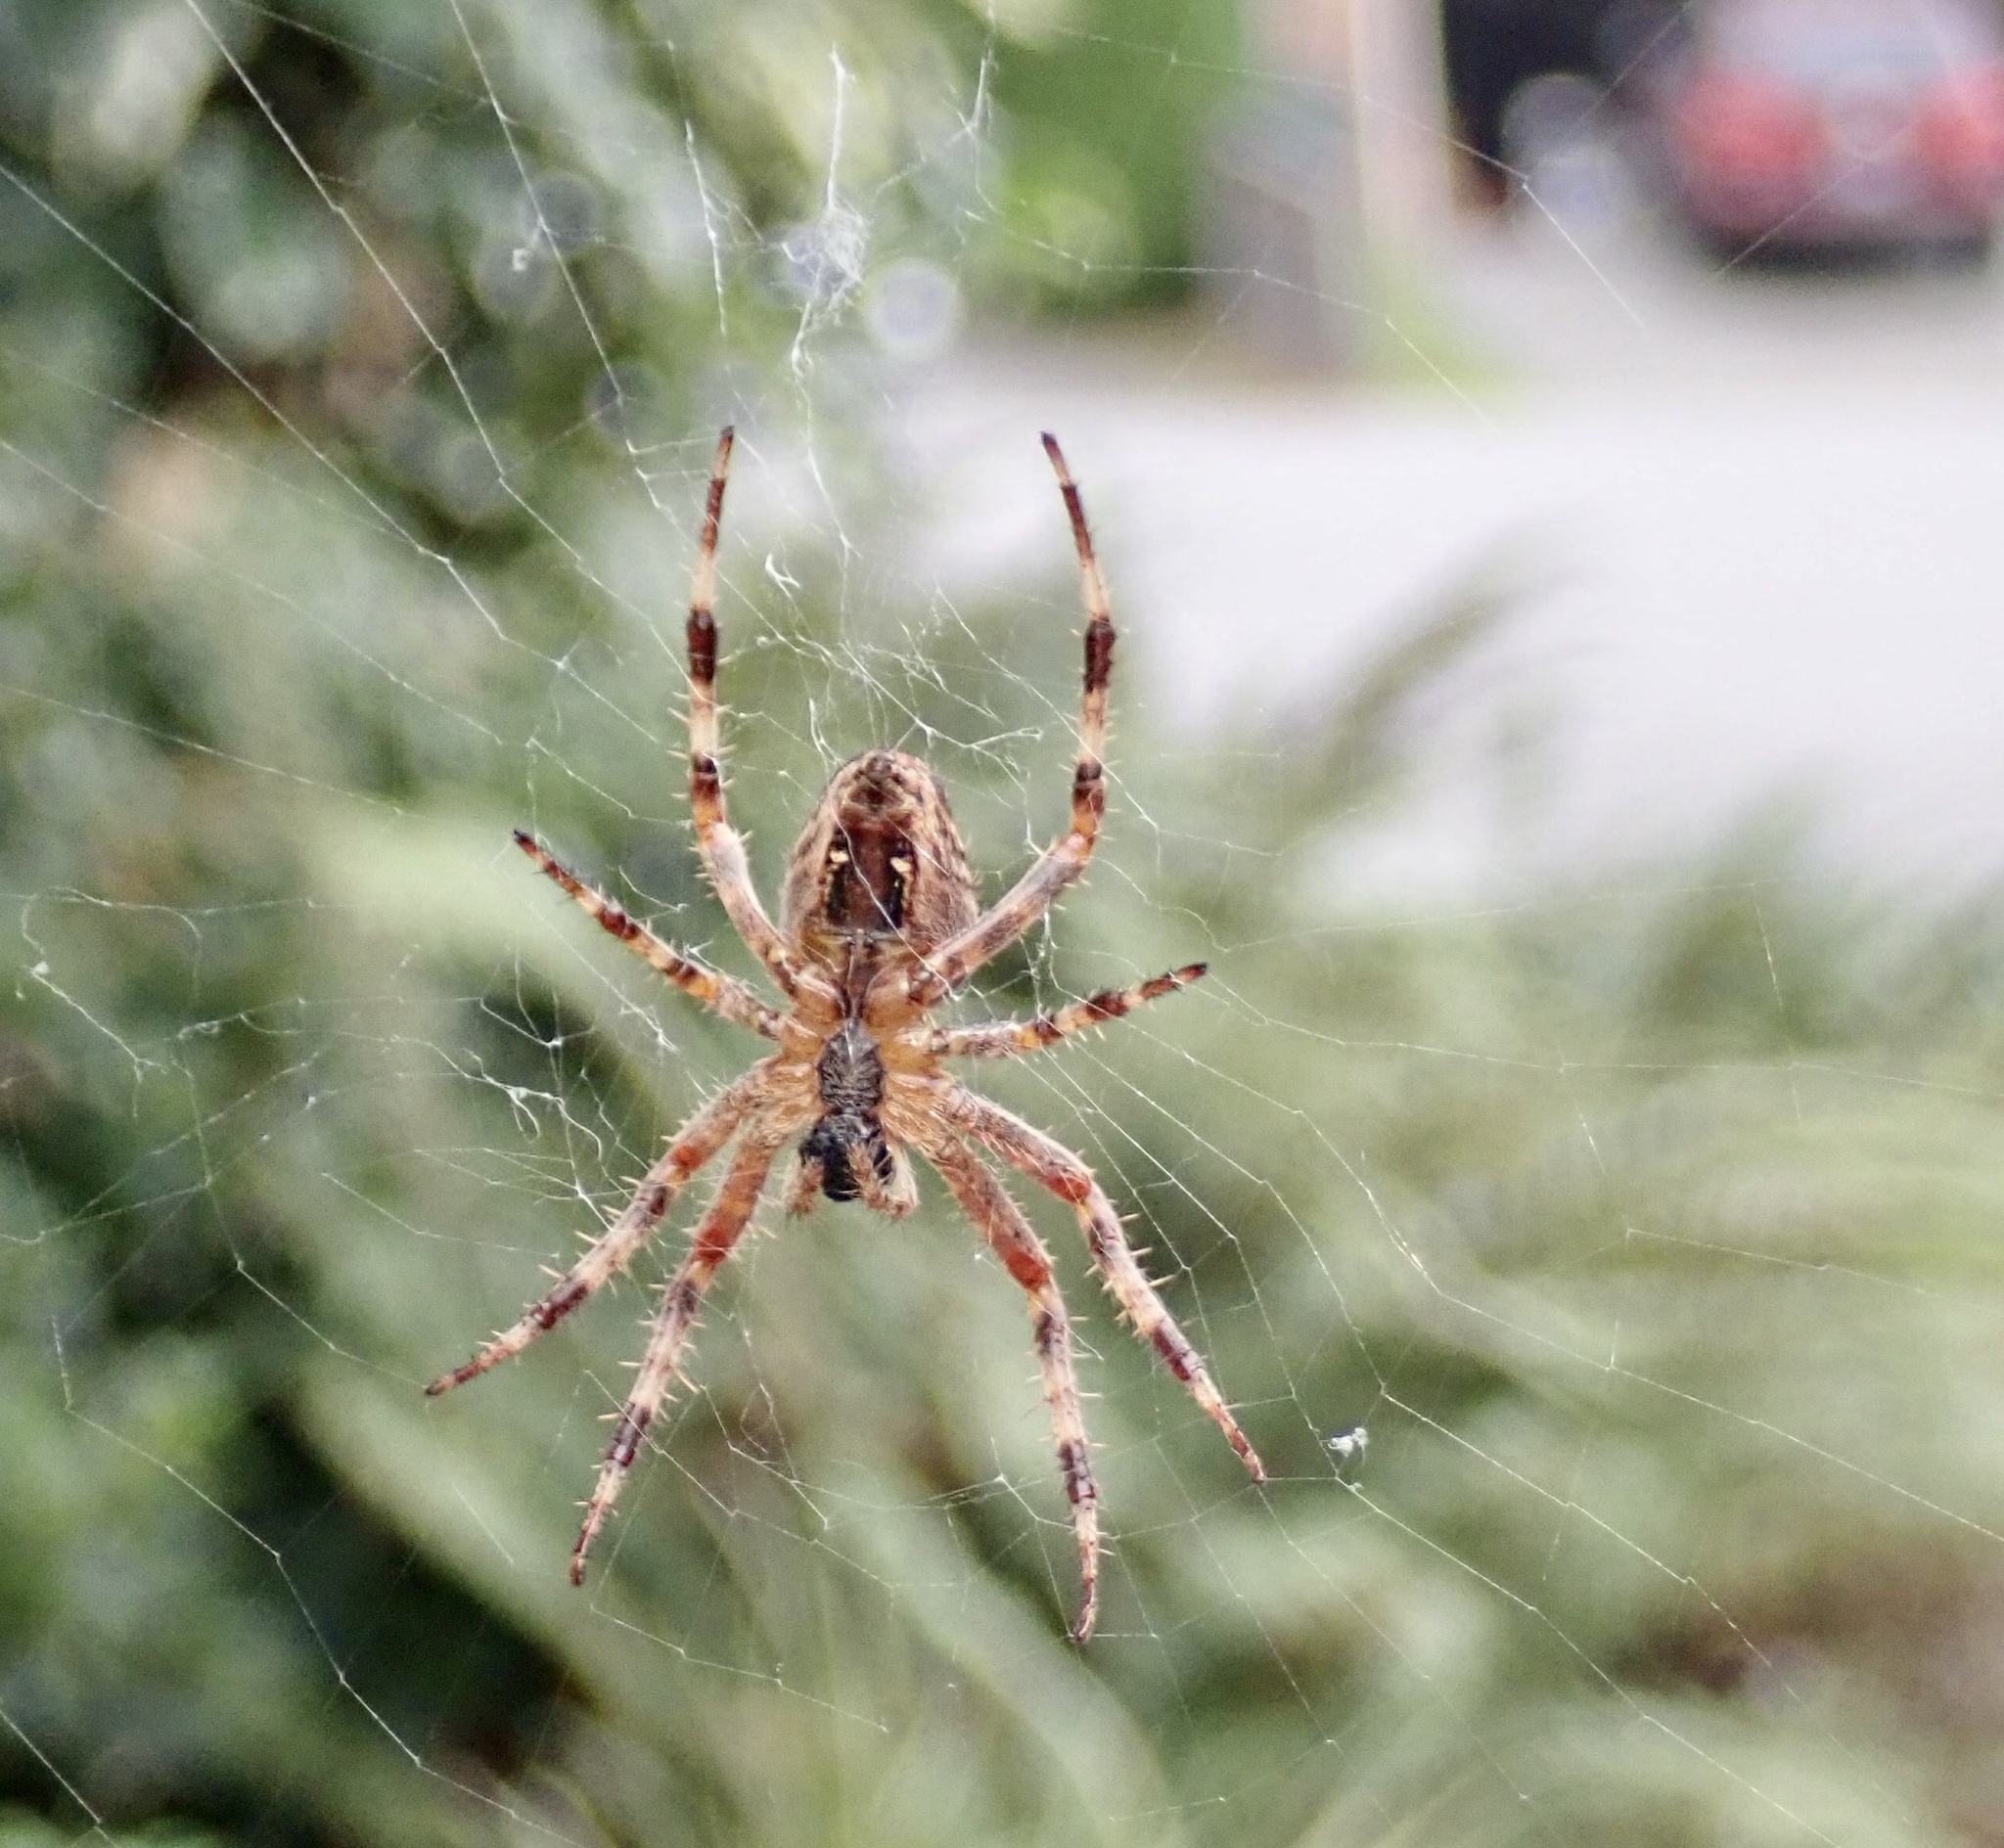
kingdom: Animalia
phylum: Arthropoda
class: Arachnida
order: Araneae
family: Araneidae
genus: Araneus
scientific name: Araneus diadematus
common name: Cross orbweaver
